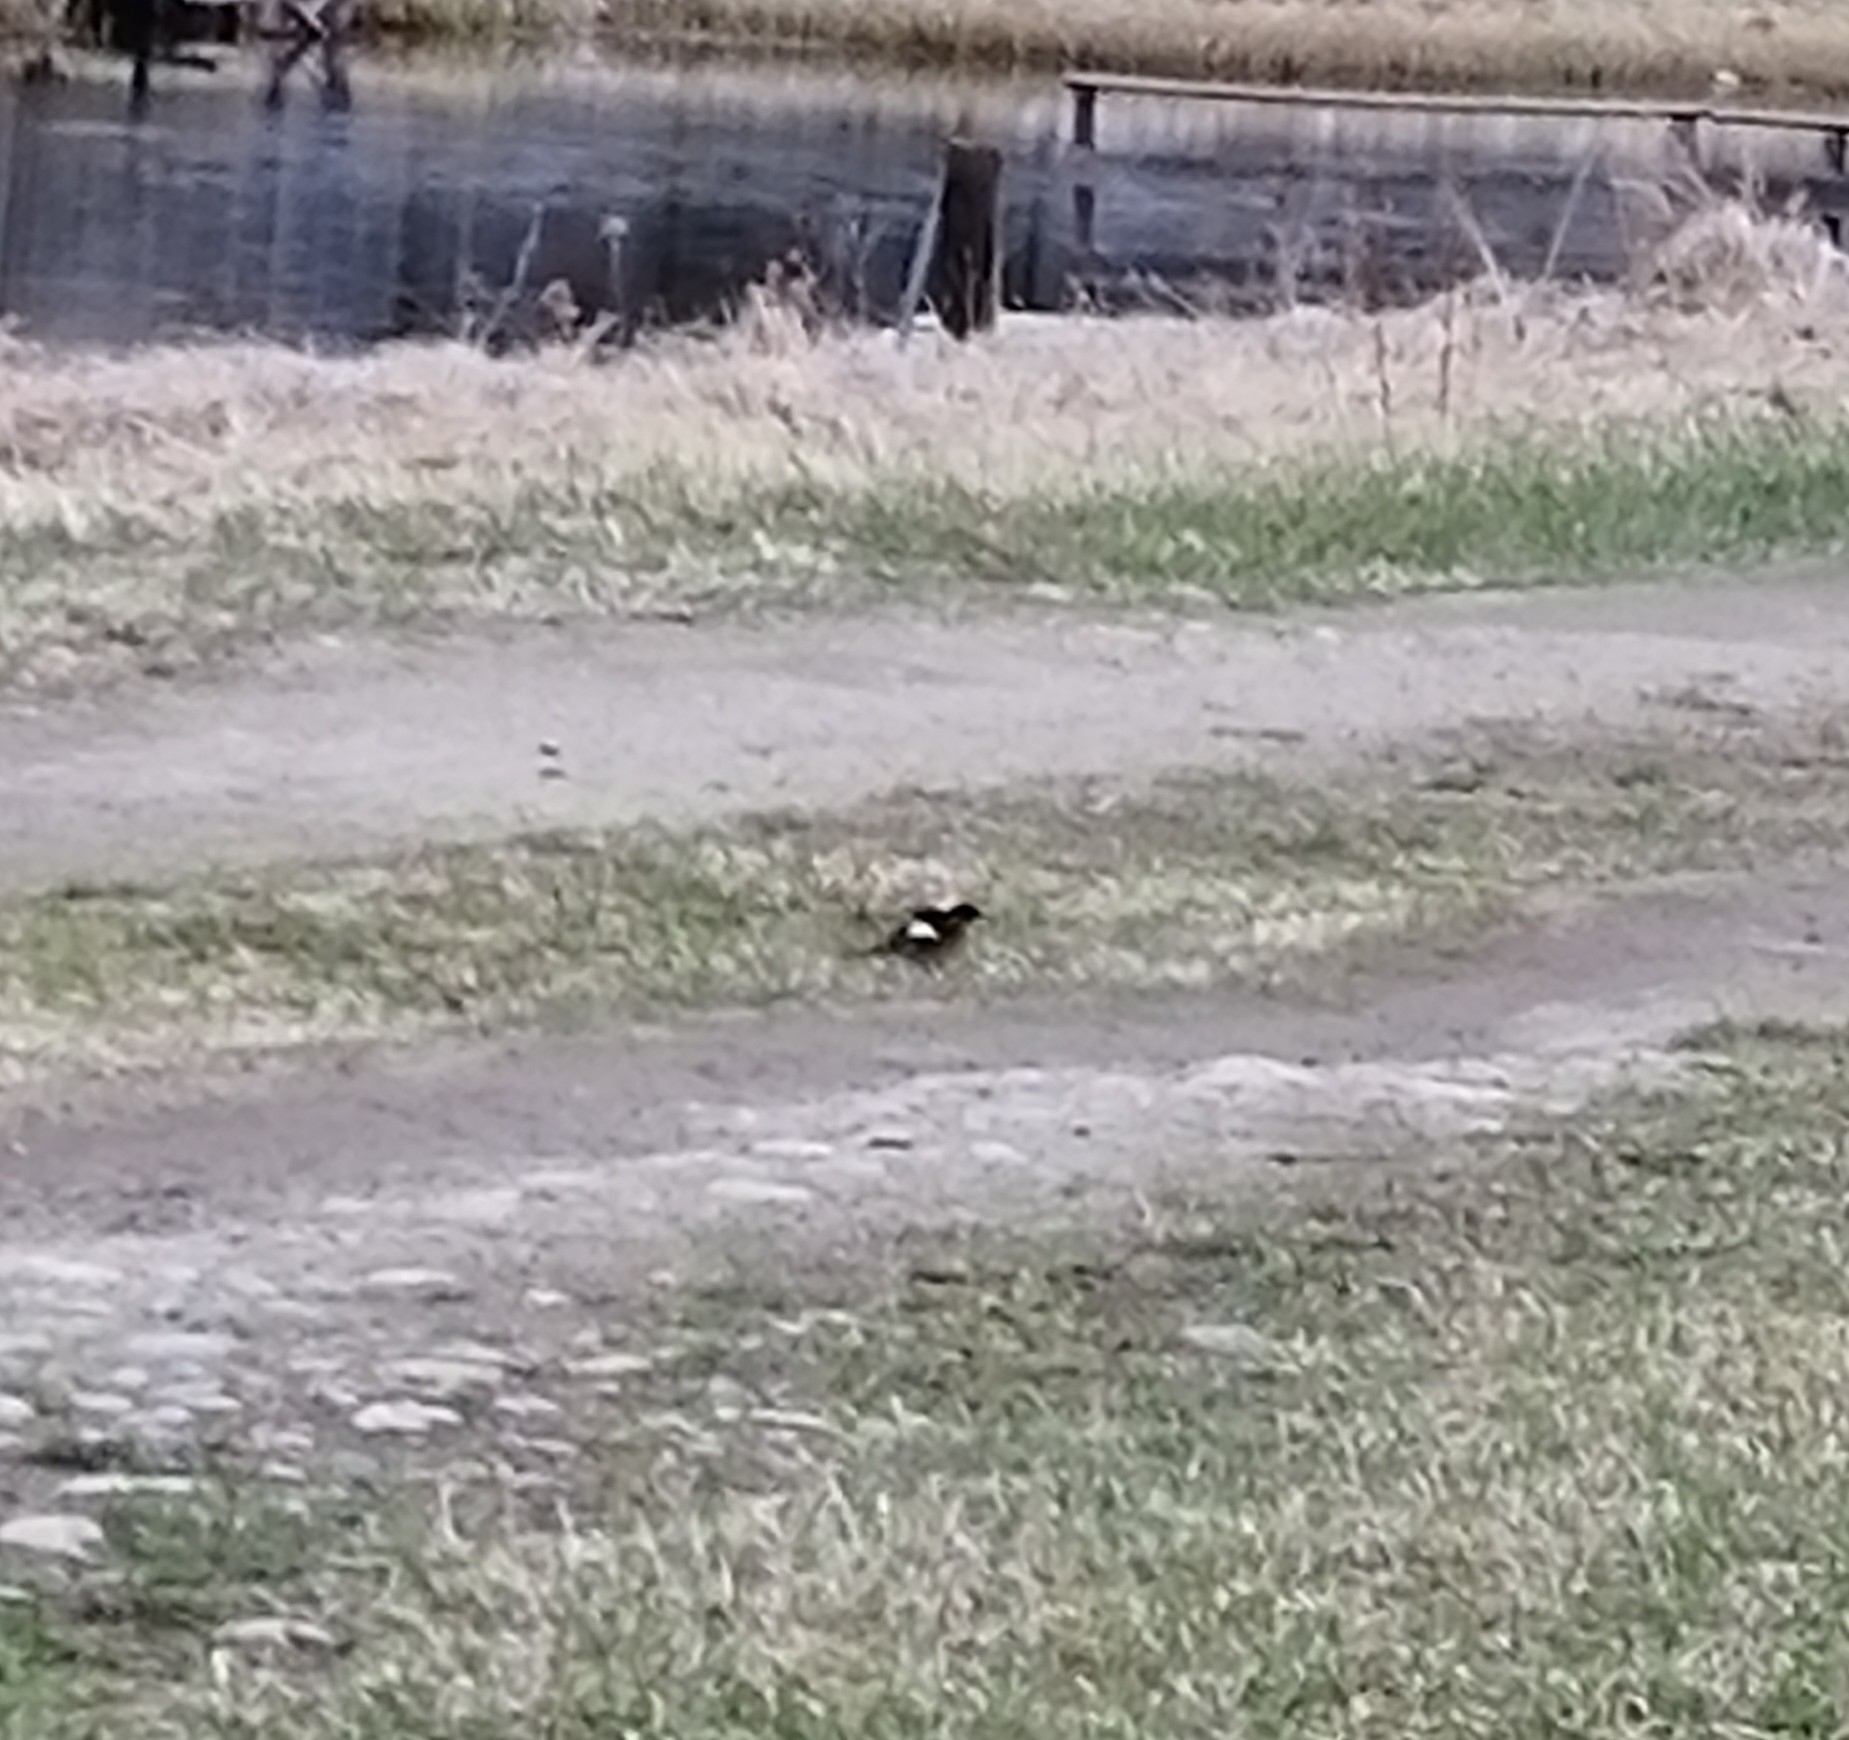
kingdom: Animalia
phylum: Chordata
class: Aves
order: Passeriformes
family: Muscicapidae
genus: Phoenicurus
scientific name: Phoenicurus auroreus
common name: Daurian redstart
